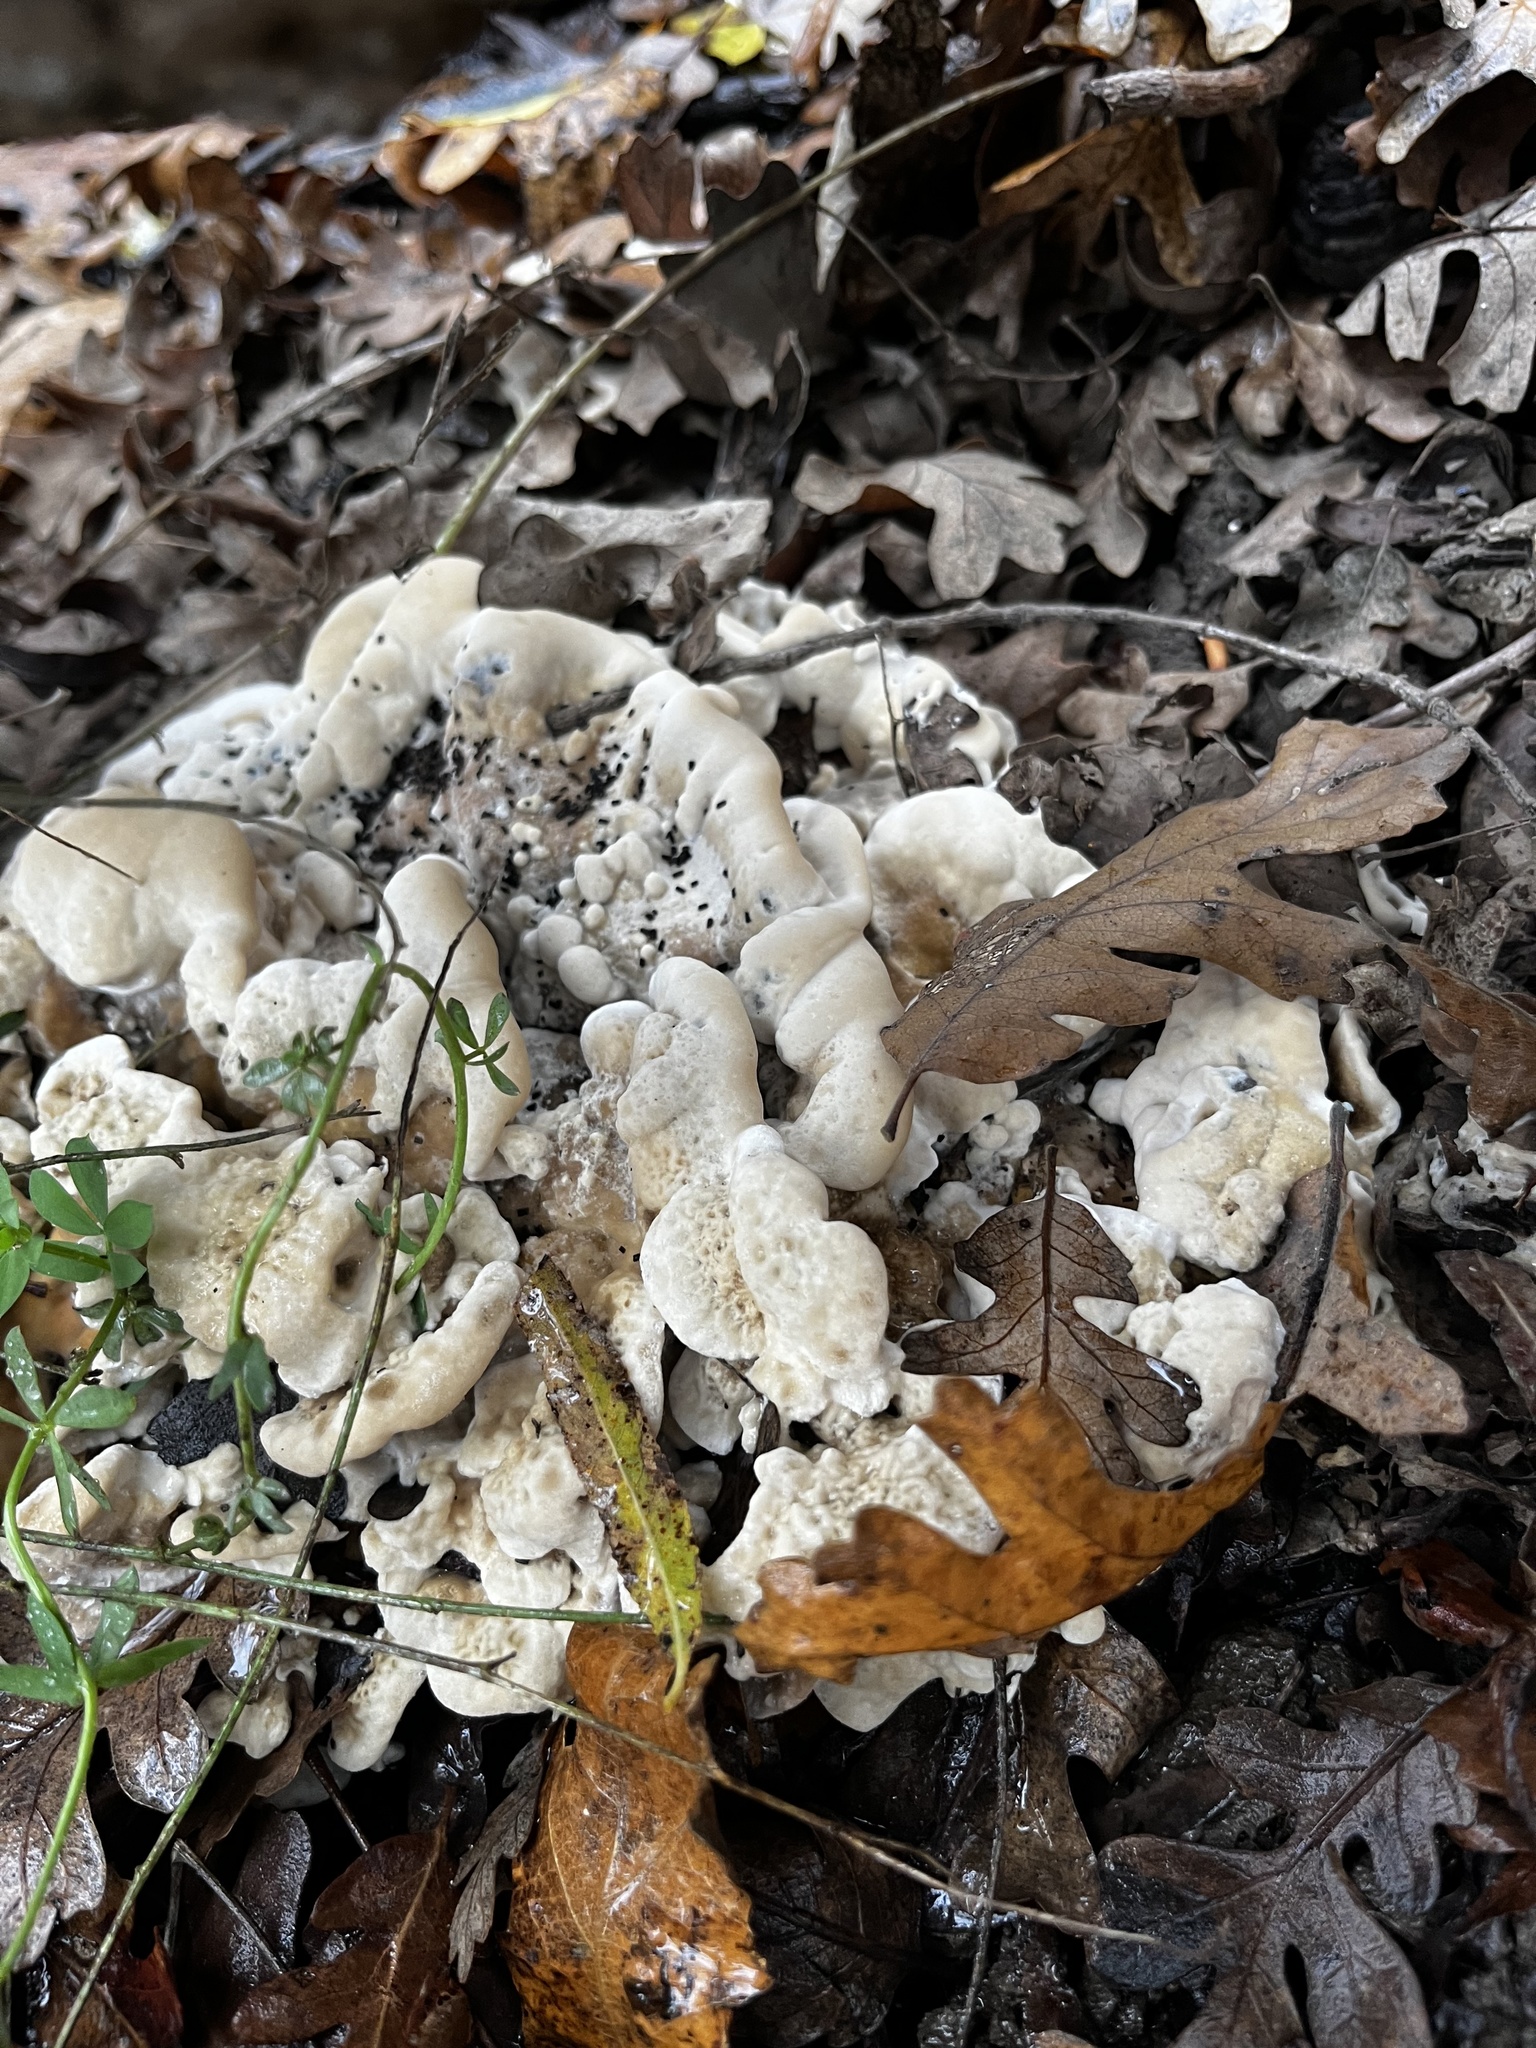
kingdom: Fungi
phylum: Basidiomycota
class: Agaricomycetes
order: Polyporales
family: Podoscyphaceae
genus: Abortiporus
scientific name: Abortiporus biennis
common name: Blushing rosette
